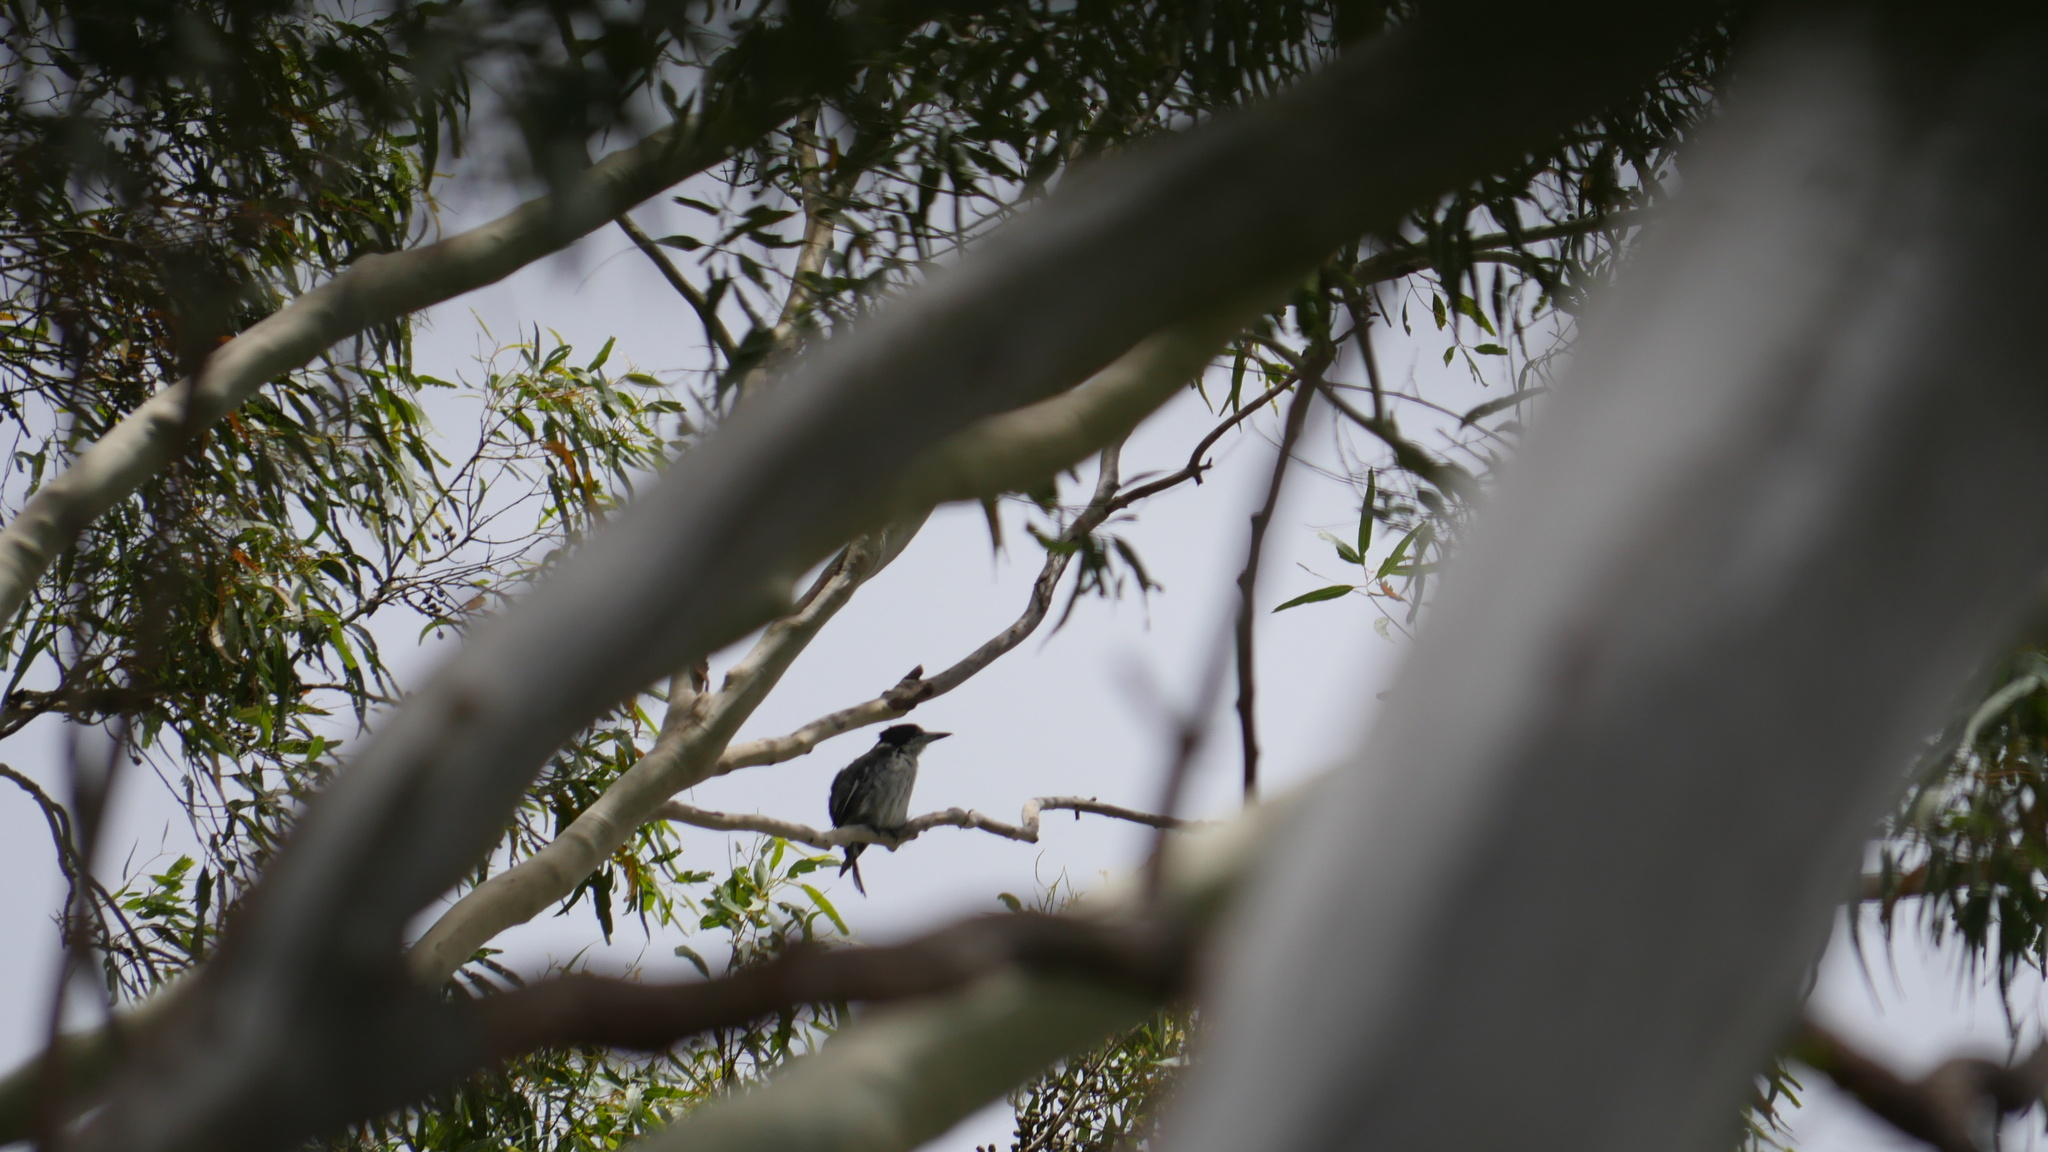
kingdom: Animalia
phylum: Chordata
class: Aves
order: Passeriformes
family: Cracticidae
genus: Cracticus
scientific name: Cracticus torquatus
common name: Grey butcherbird
